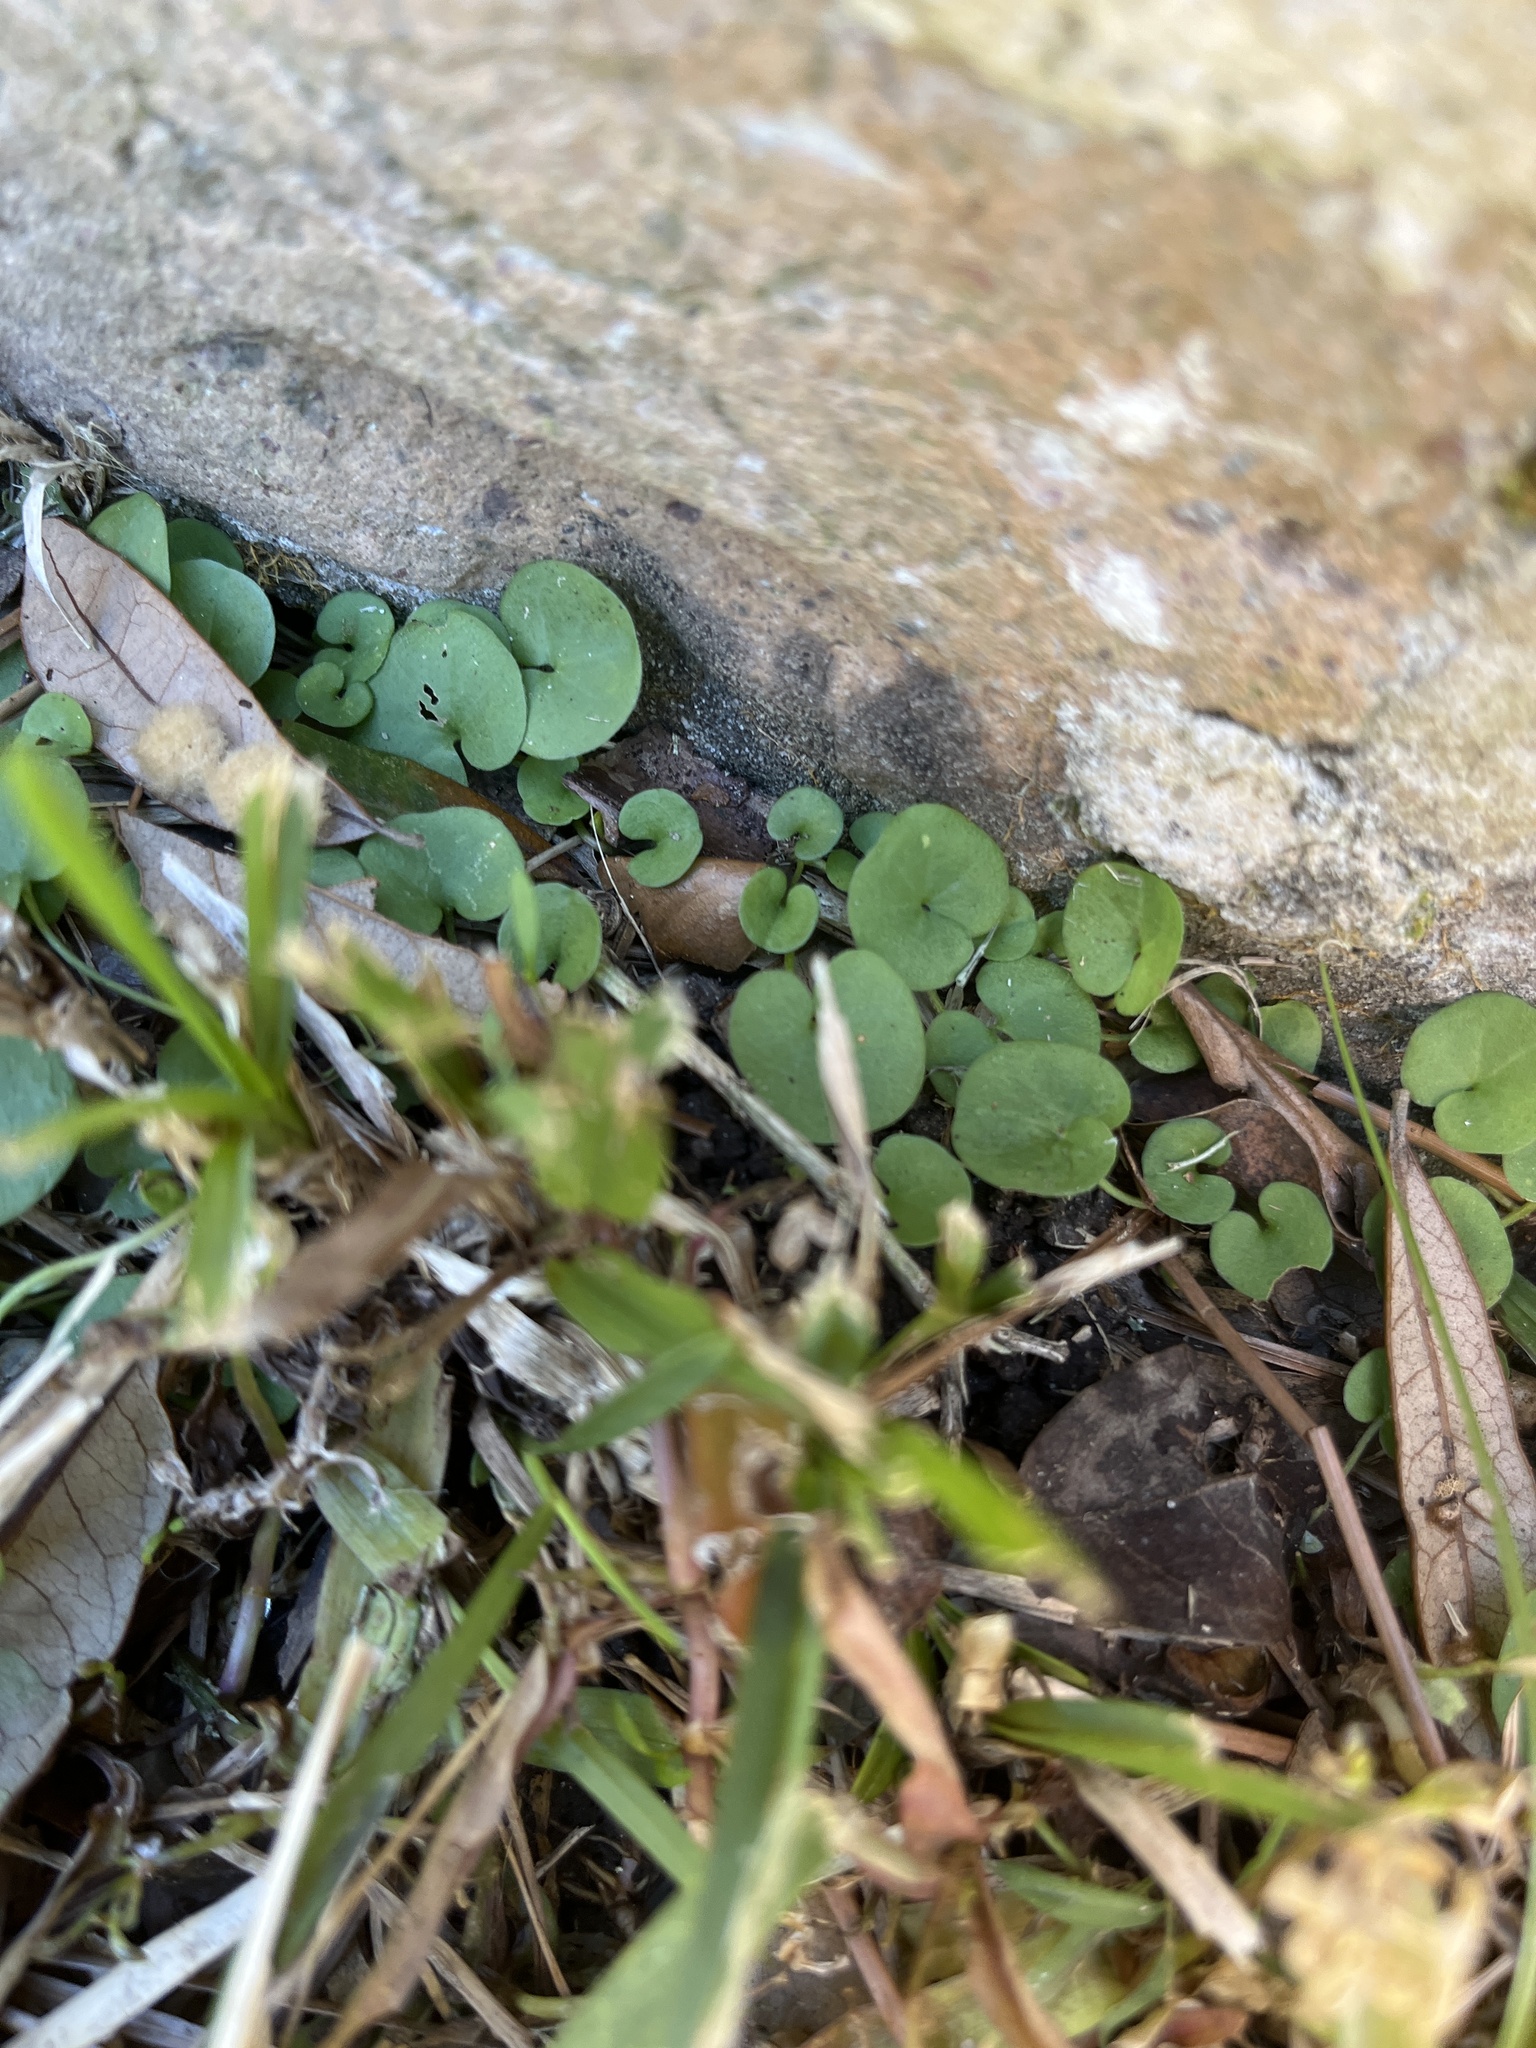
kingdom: Plantae
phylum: Tracheophyta
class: Magnoliopsida
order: Solanales
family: Convolvulaceae
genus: Dichondra
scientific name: Dichondra carolinensis
